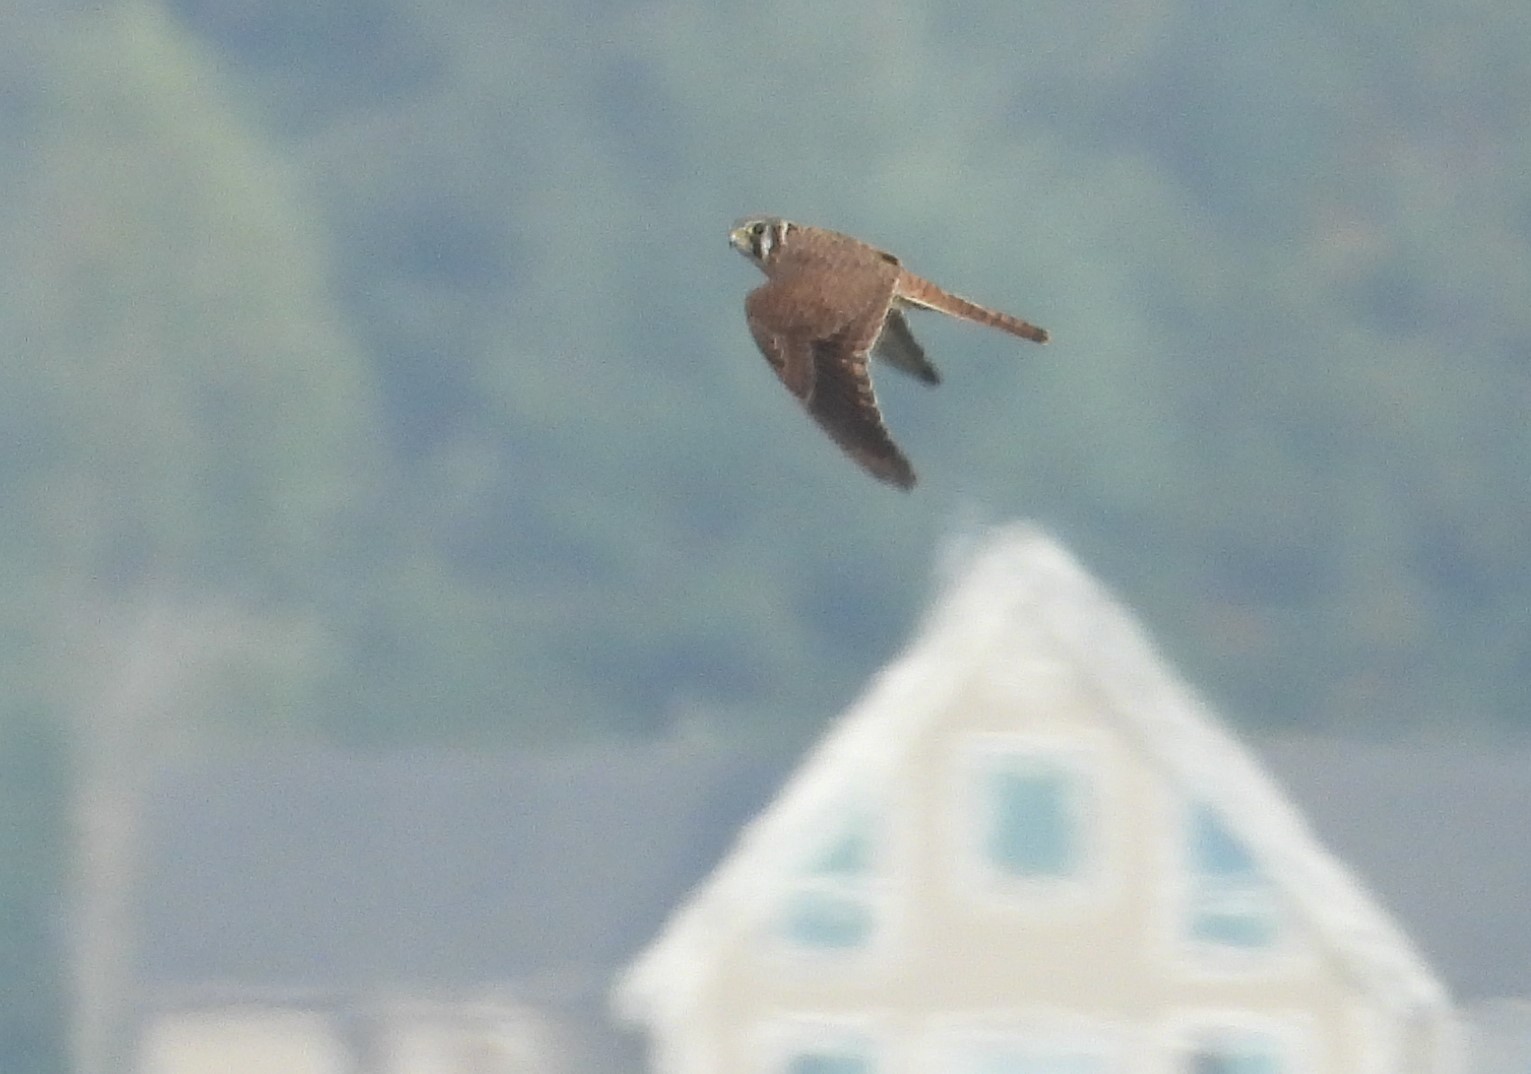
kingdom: Animalia
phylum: Chordata
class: Aves
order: Falconiformes
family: Falconidae
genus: Falco
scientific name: Falco sparverius
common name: American kestrel
